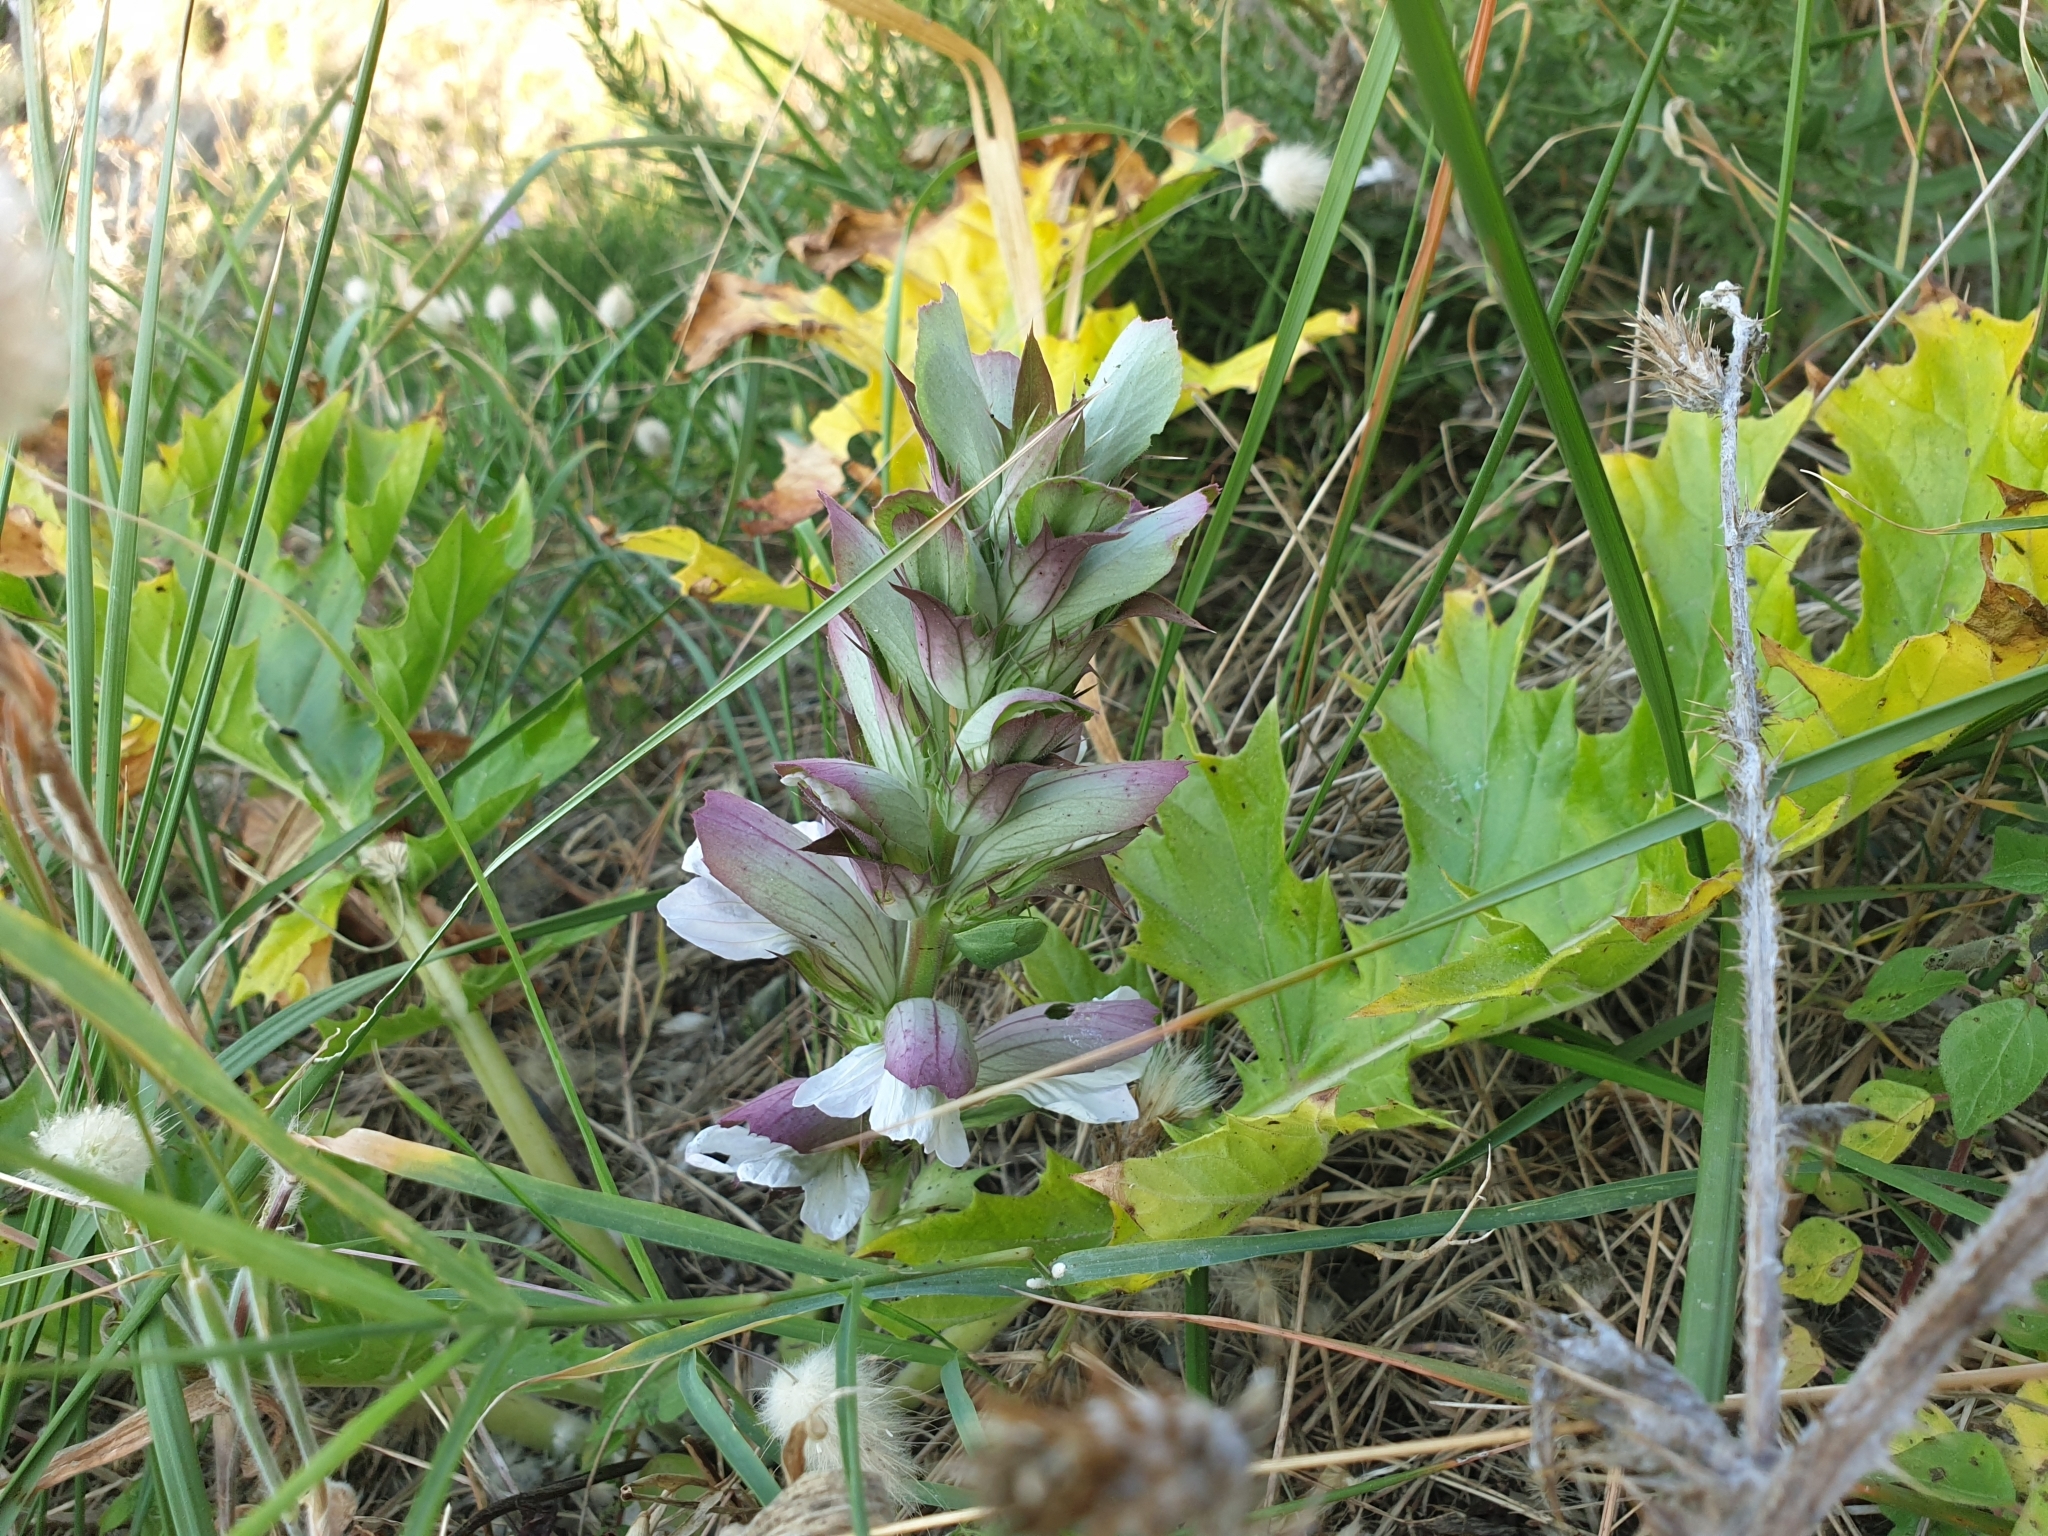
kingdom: Plantae
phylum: Tracheophyta
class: Magnoliopsida
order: Lamiales
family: Acanthaceae
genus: Acanthus
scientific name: Acanthus mollis
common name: Bear's-breech
